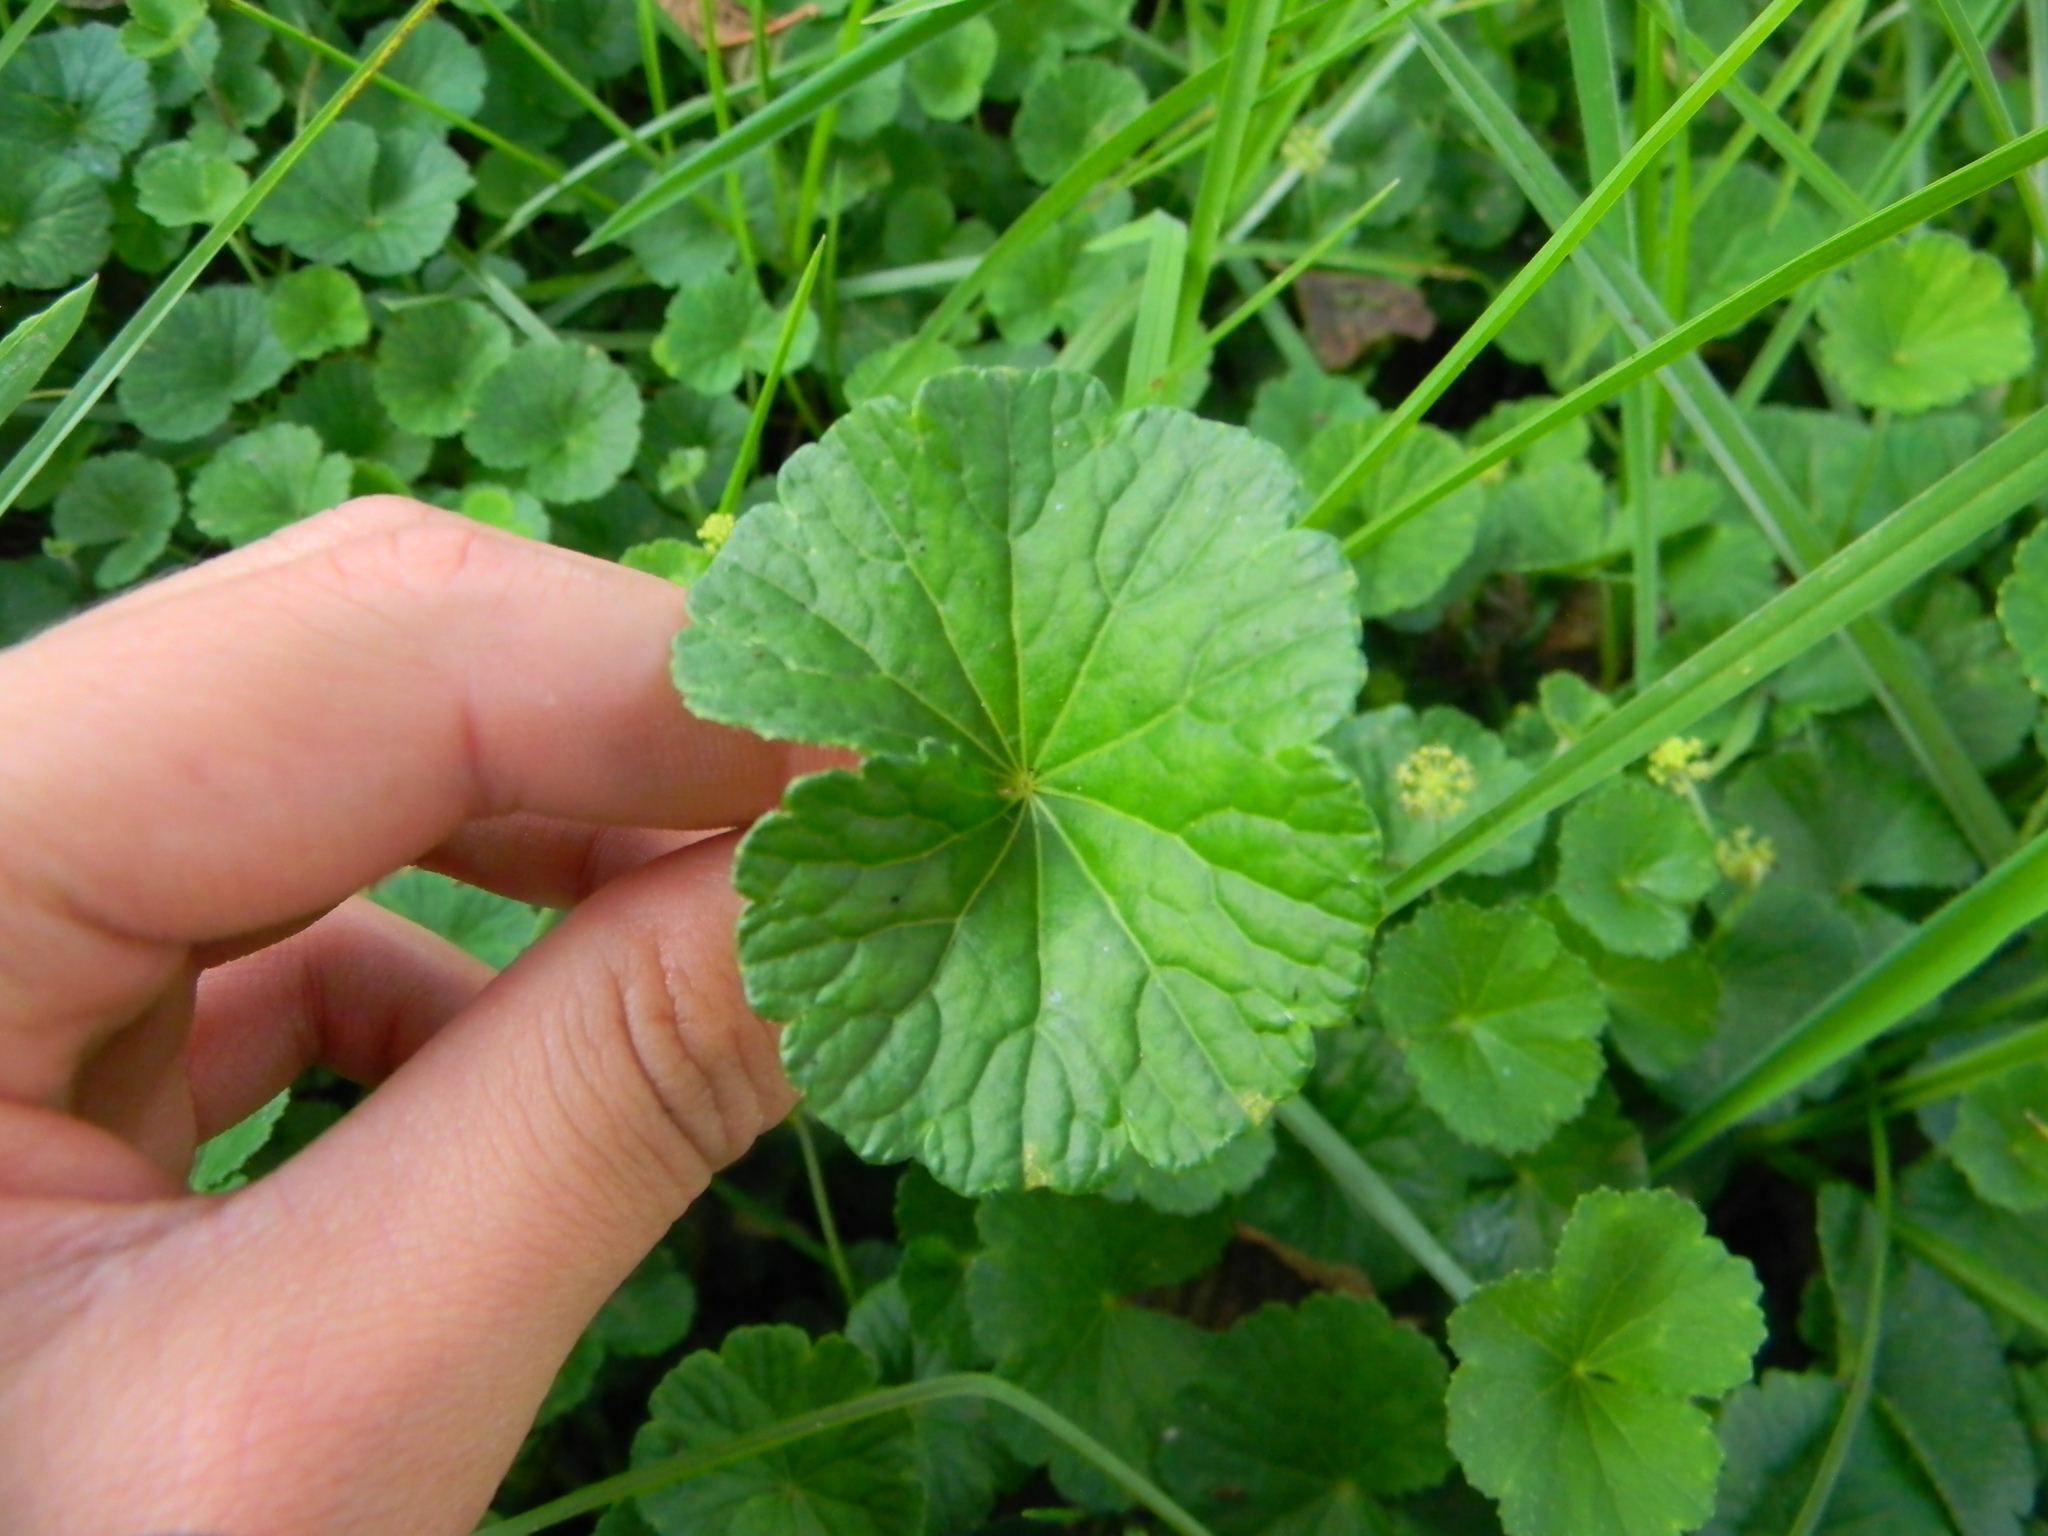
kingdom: Plantae
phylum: Tracheophyta
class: Magnoliopsida
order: Apiales
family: Araliaceae
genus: Hydrocotyle
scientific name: Hydrocotyle bonplandii
